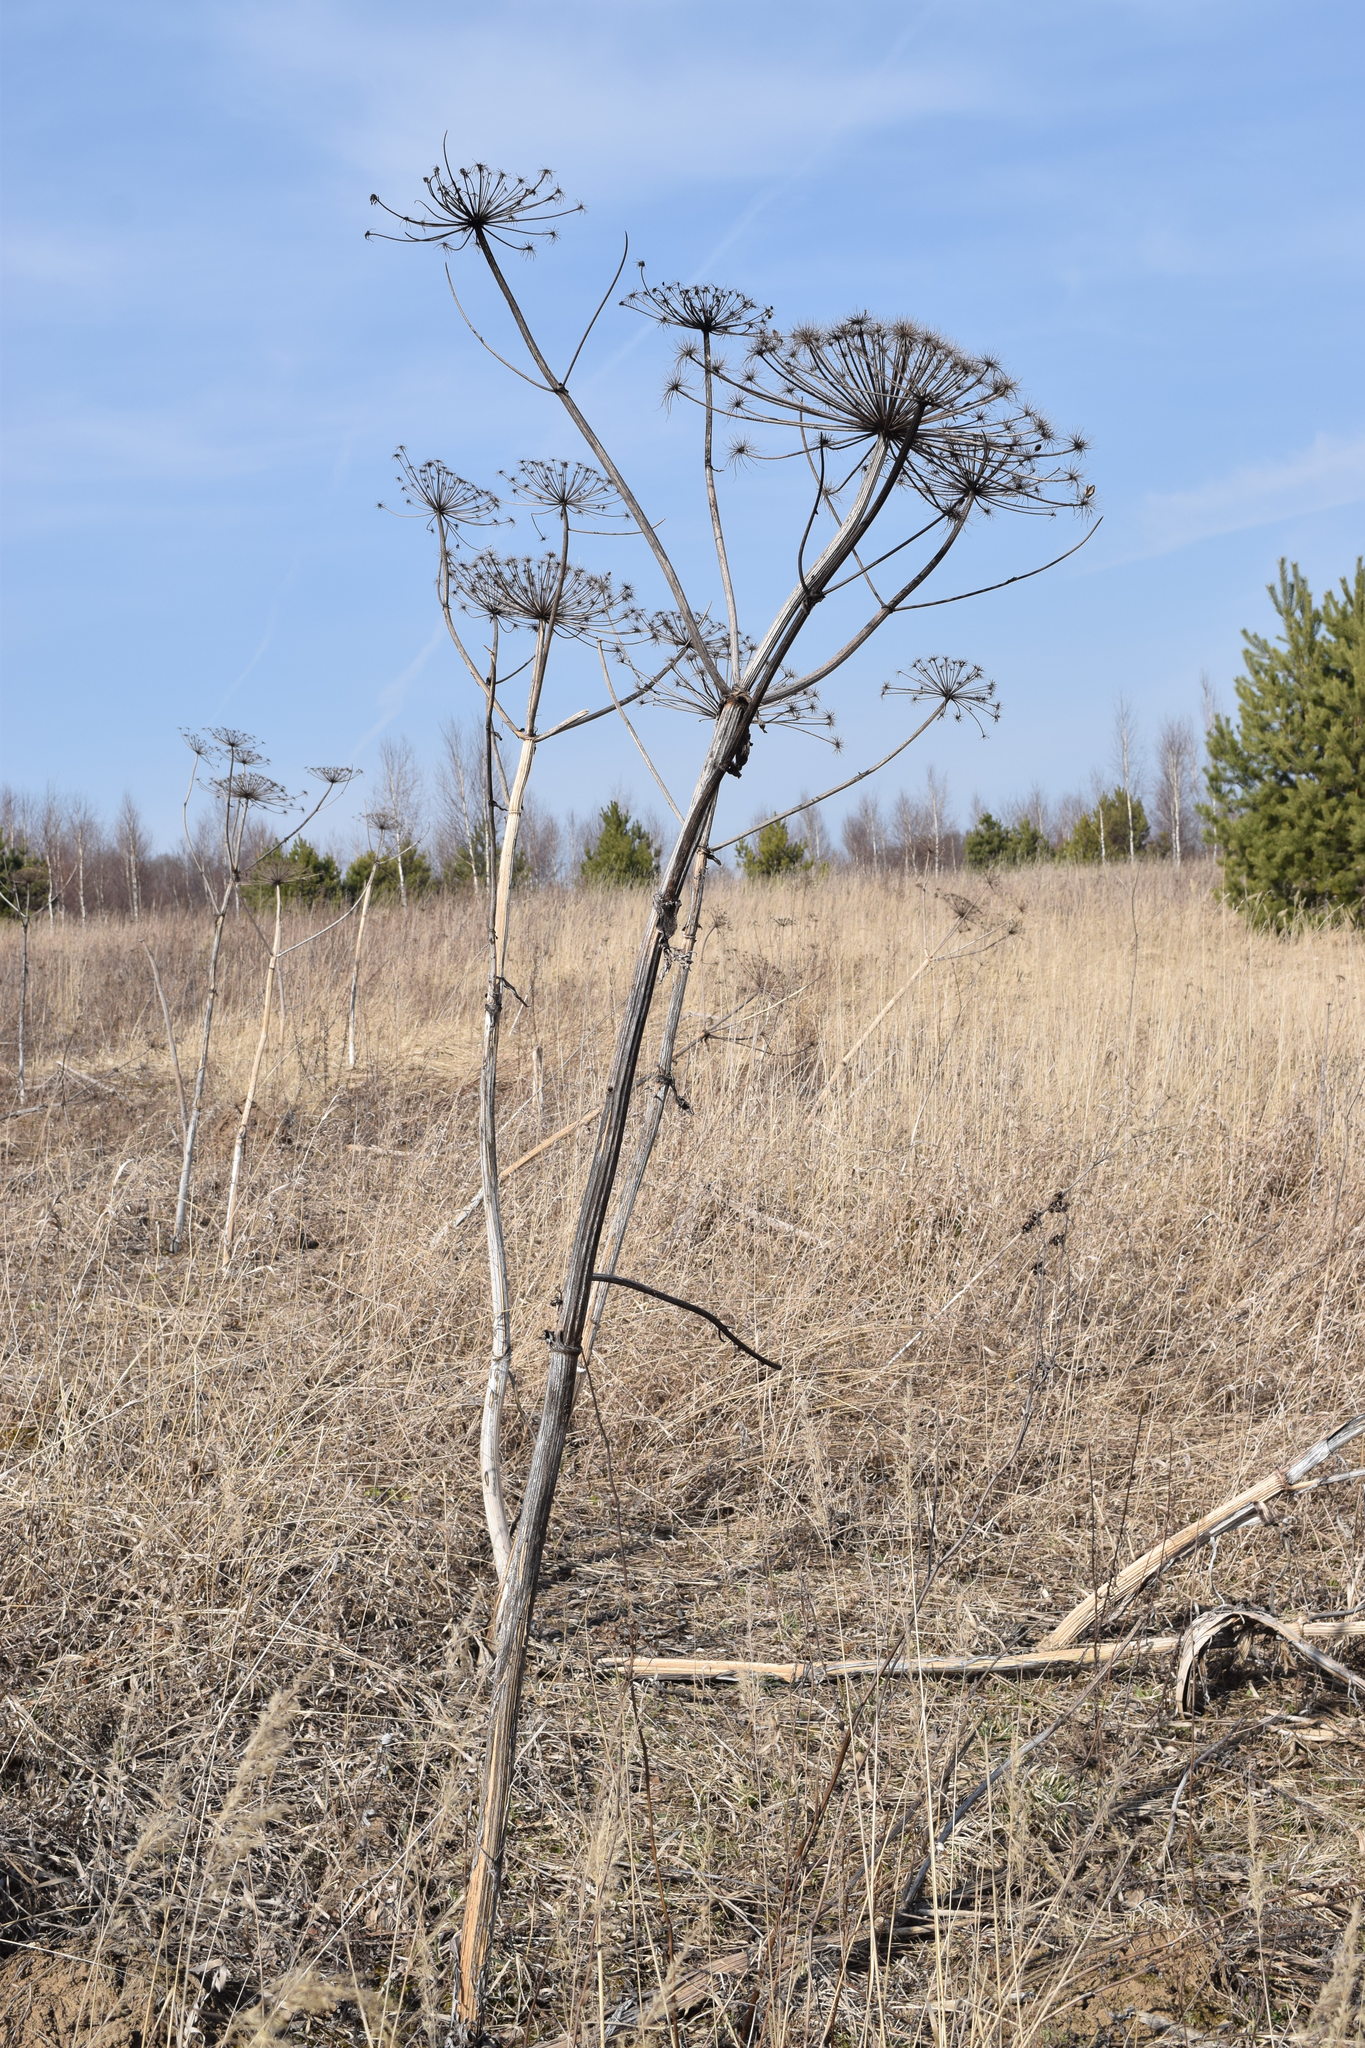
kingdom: Plantae
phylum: Tracheophyta
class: Magnoliopsida
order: Apiales
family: Apiaceae
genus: Heracleum
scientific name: Heracleum sosnowskyi
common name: Sosnowsky's hogweed
